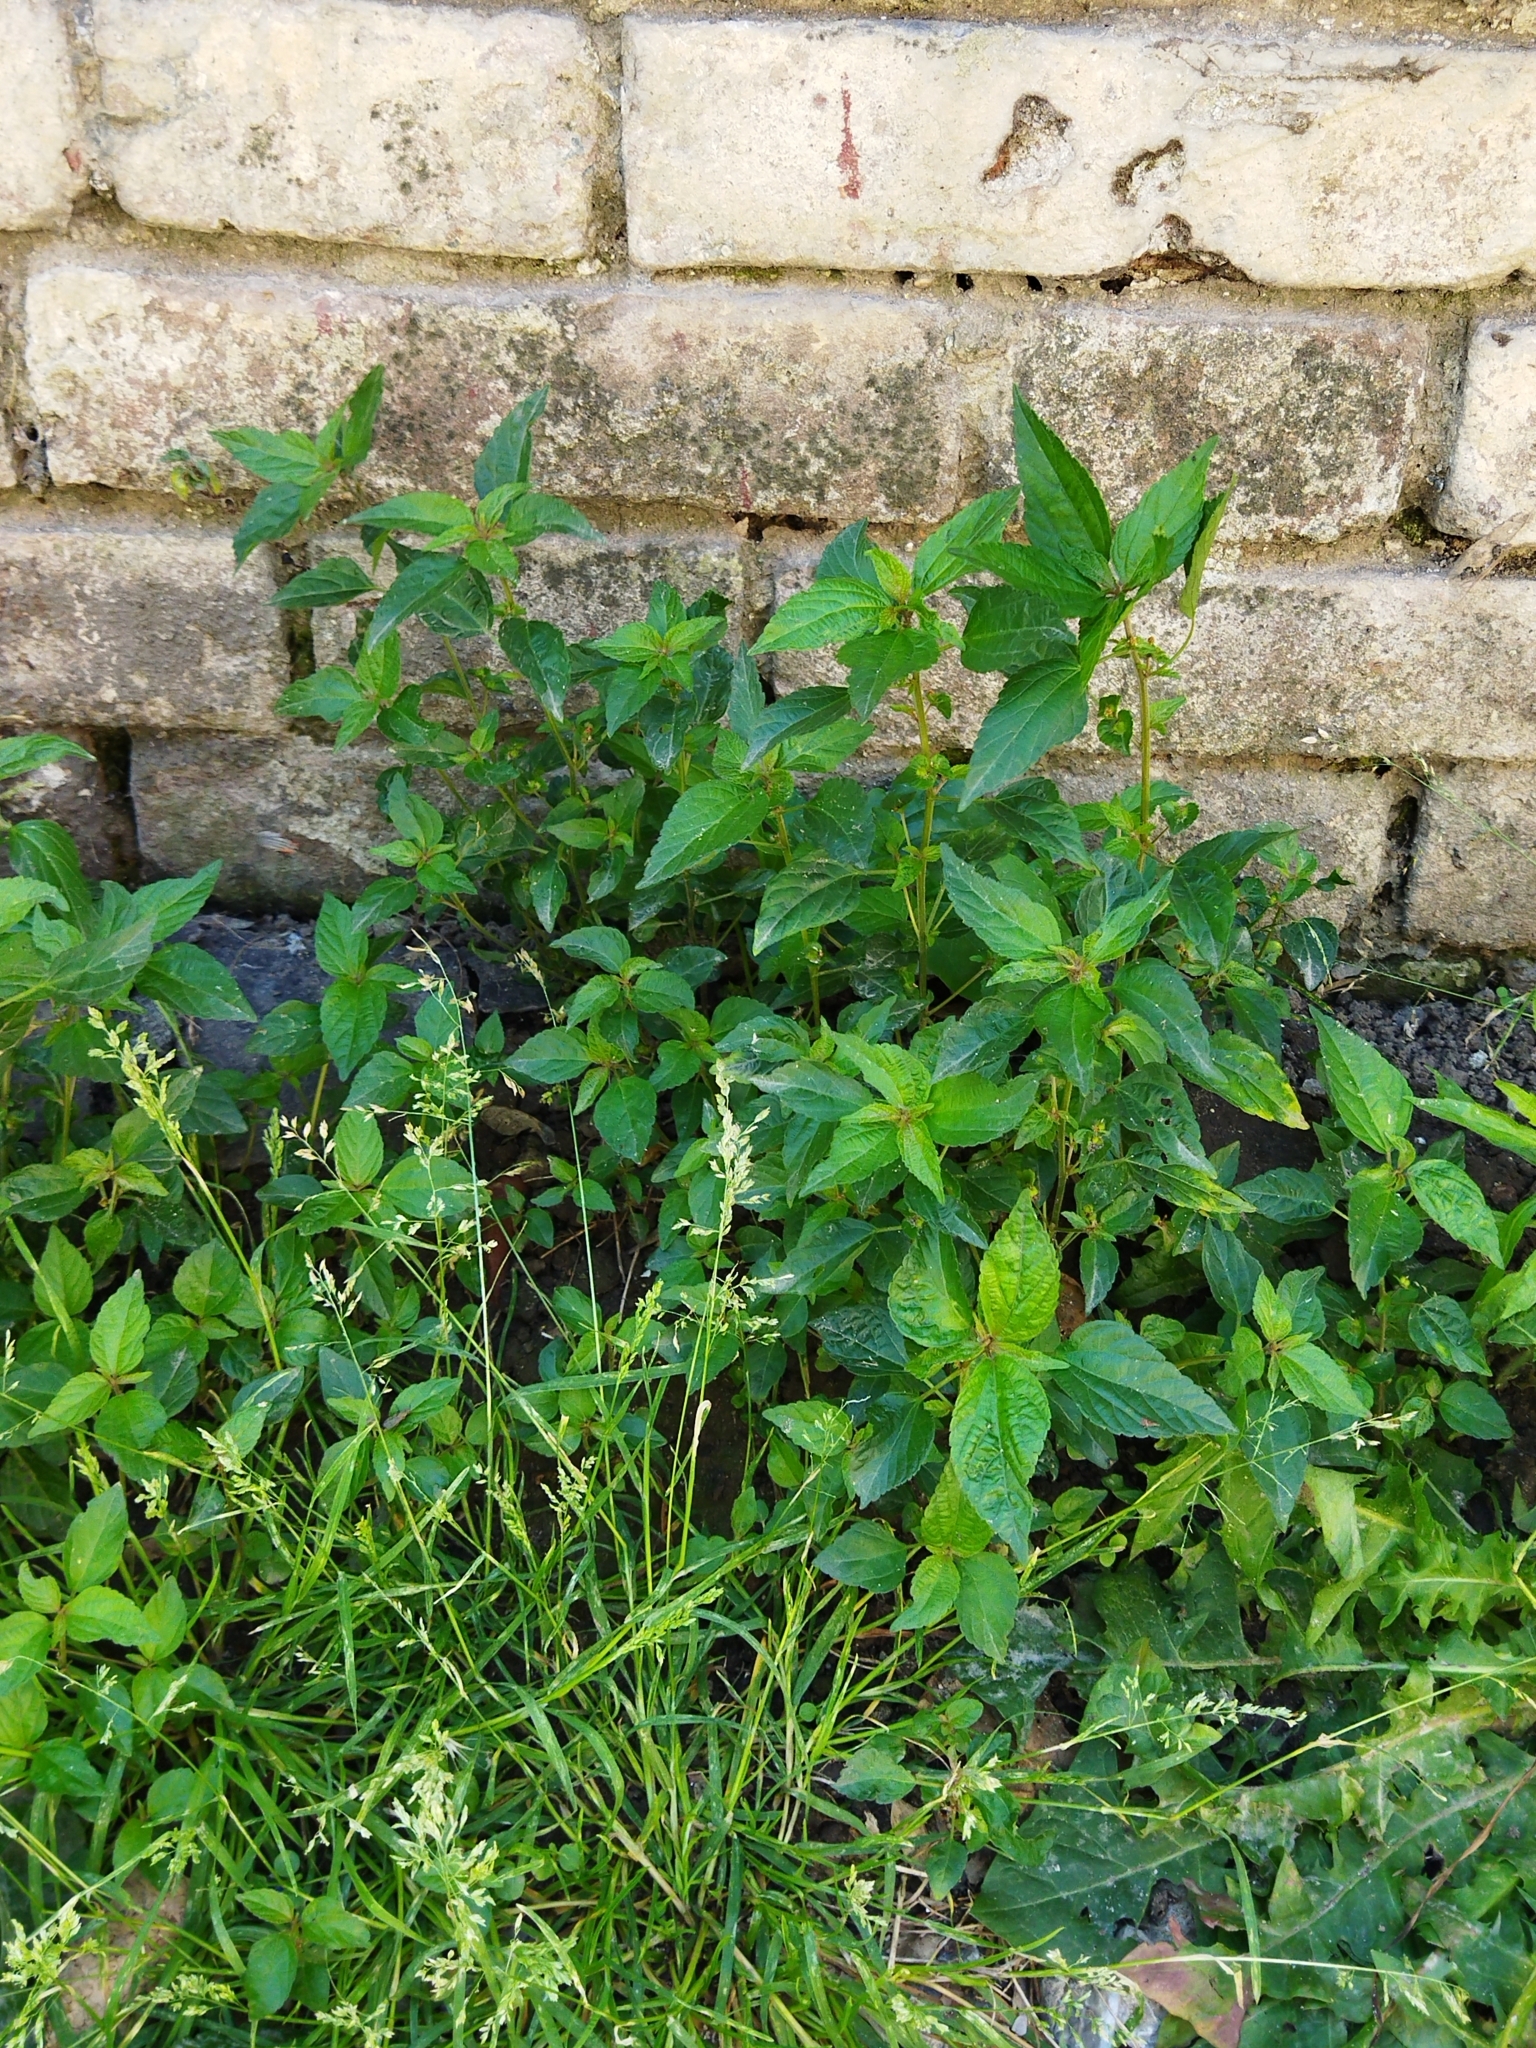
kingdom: Plantae
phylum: Tracheophyta
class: Magnoliopsida
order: Malpighiales
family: Euphorbiaceae
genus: Acalypha
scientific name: Acalypha australis
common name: Asian copperleaf
